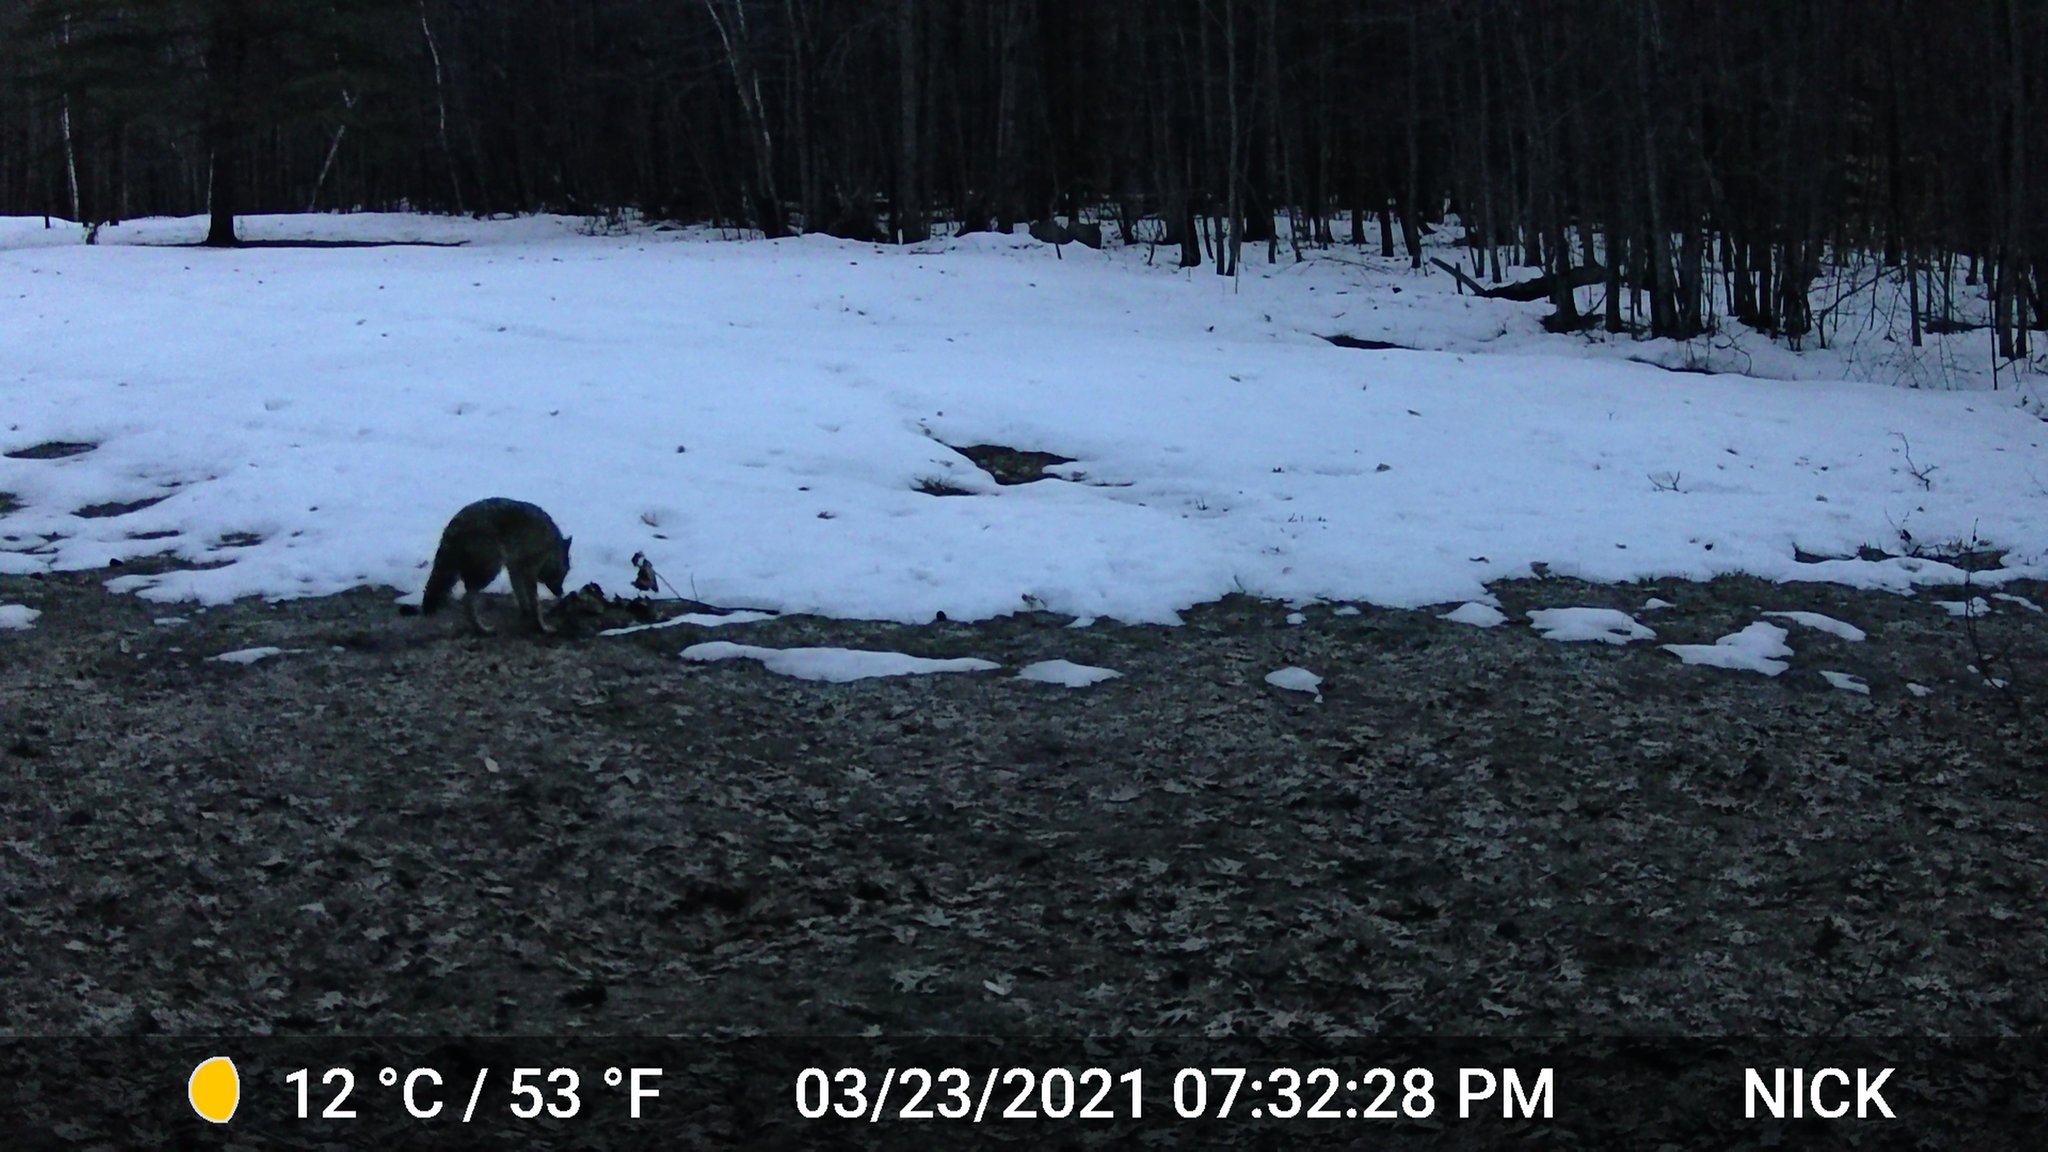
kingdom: Animalia
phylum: Chordata
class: Mammalia
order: Carnivora
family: Canidae
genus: Canis
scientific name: Canis latrans
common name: Coyote
